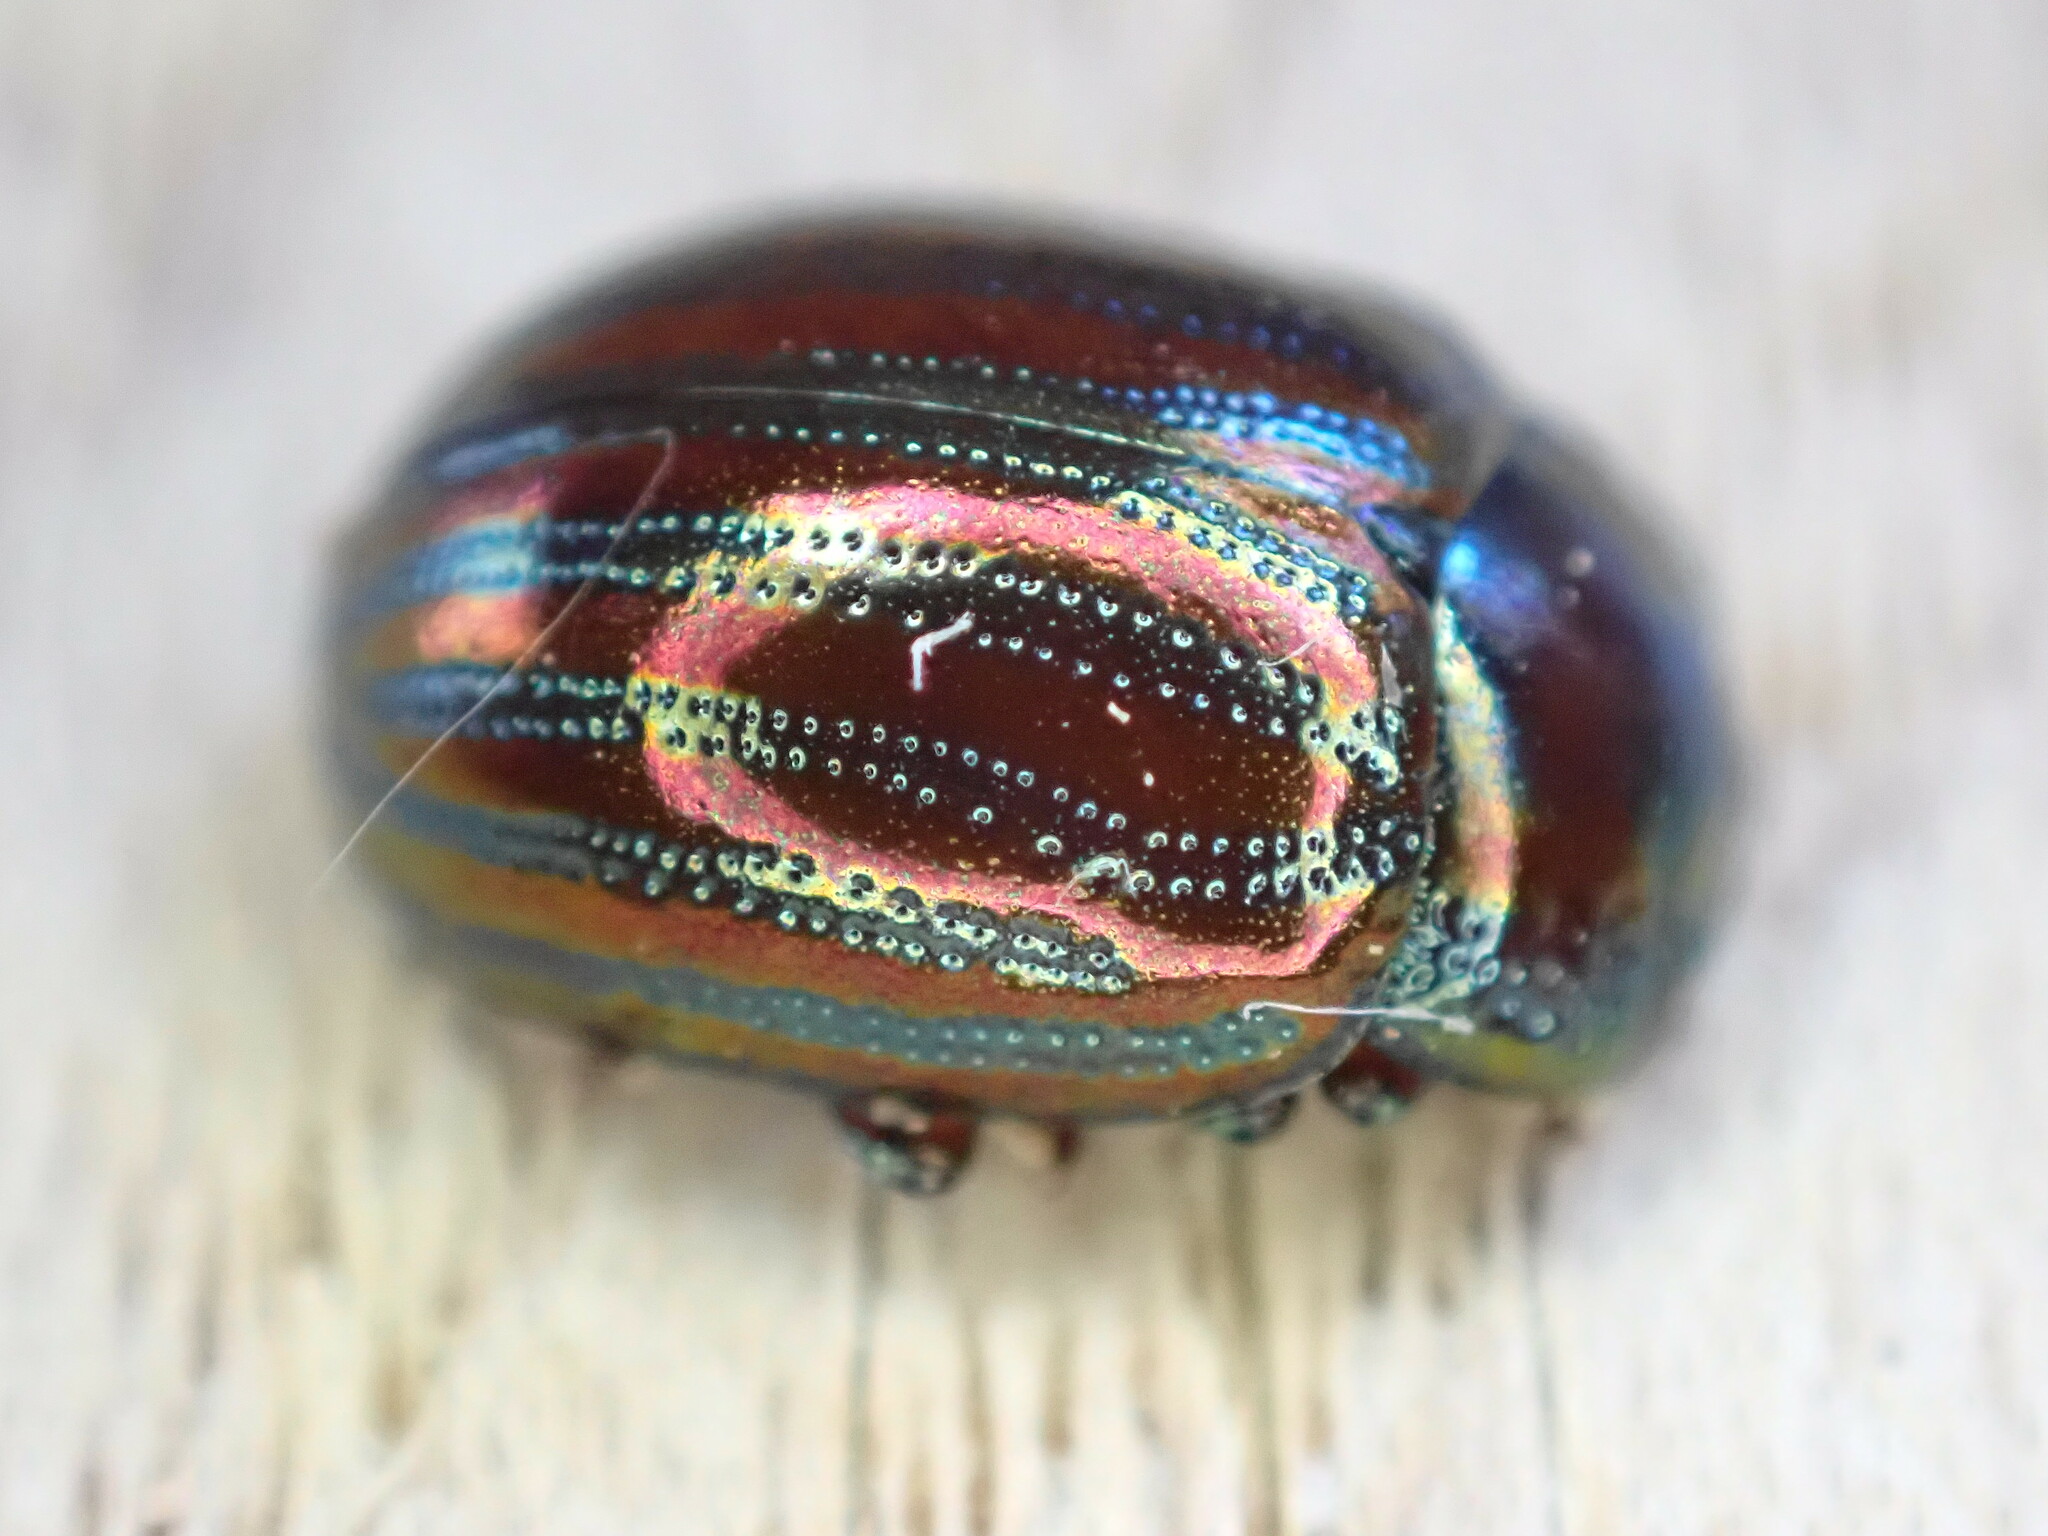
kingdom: Animalia
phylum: Arthropoda
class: Insecta
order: Coleoptera
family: Chrysomelidae
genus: Chrysolina
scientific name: Chrysolina americana
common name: Rosemary beetle
